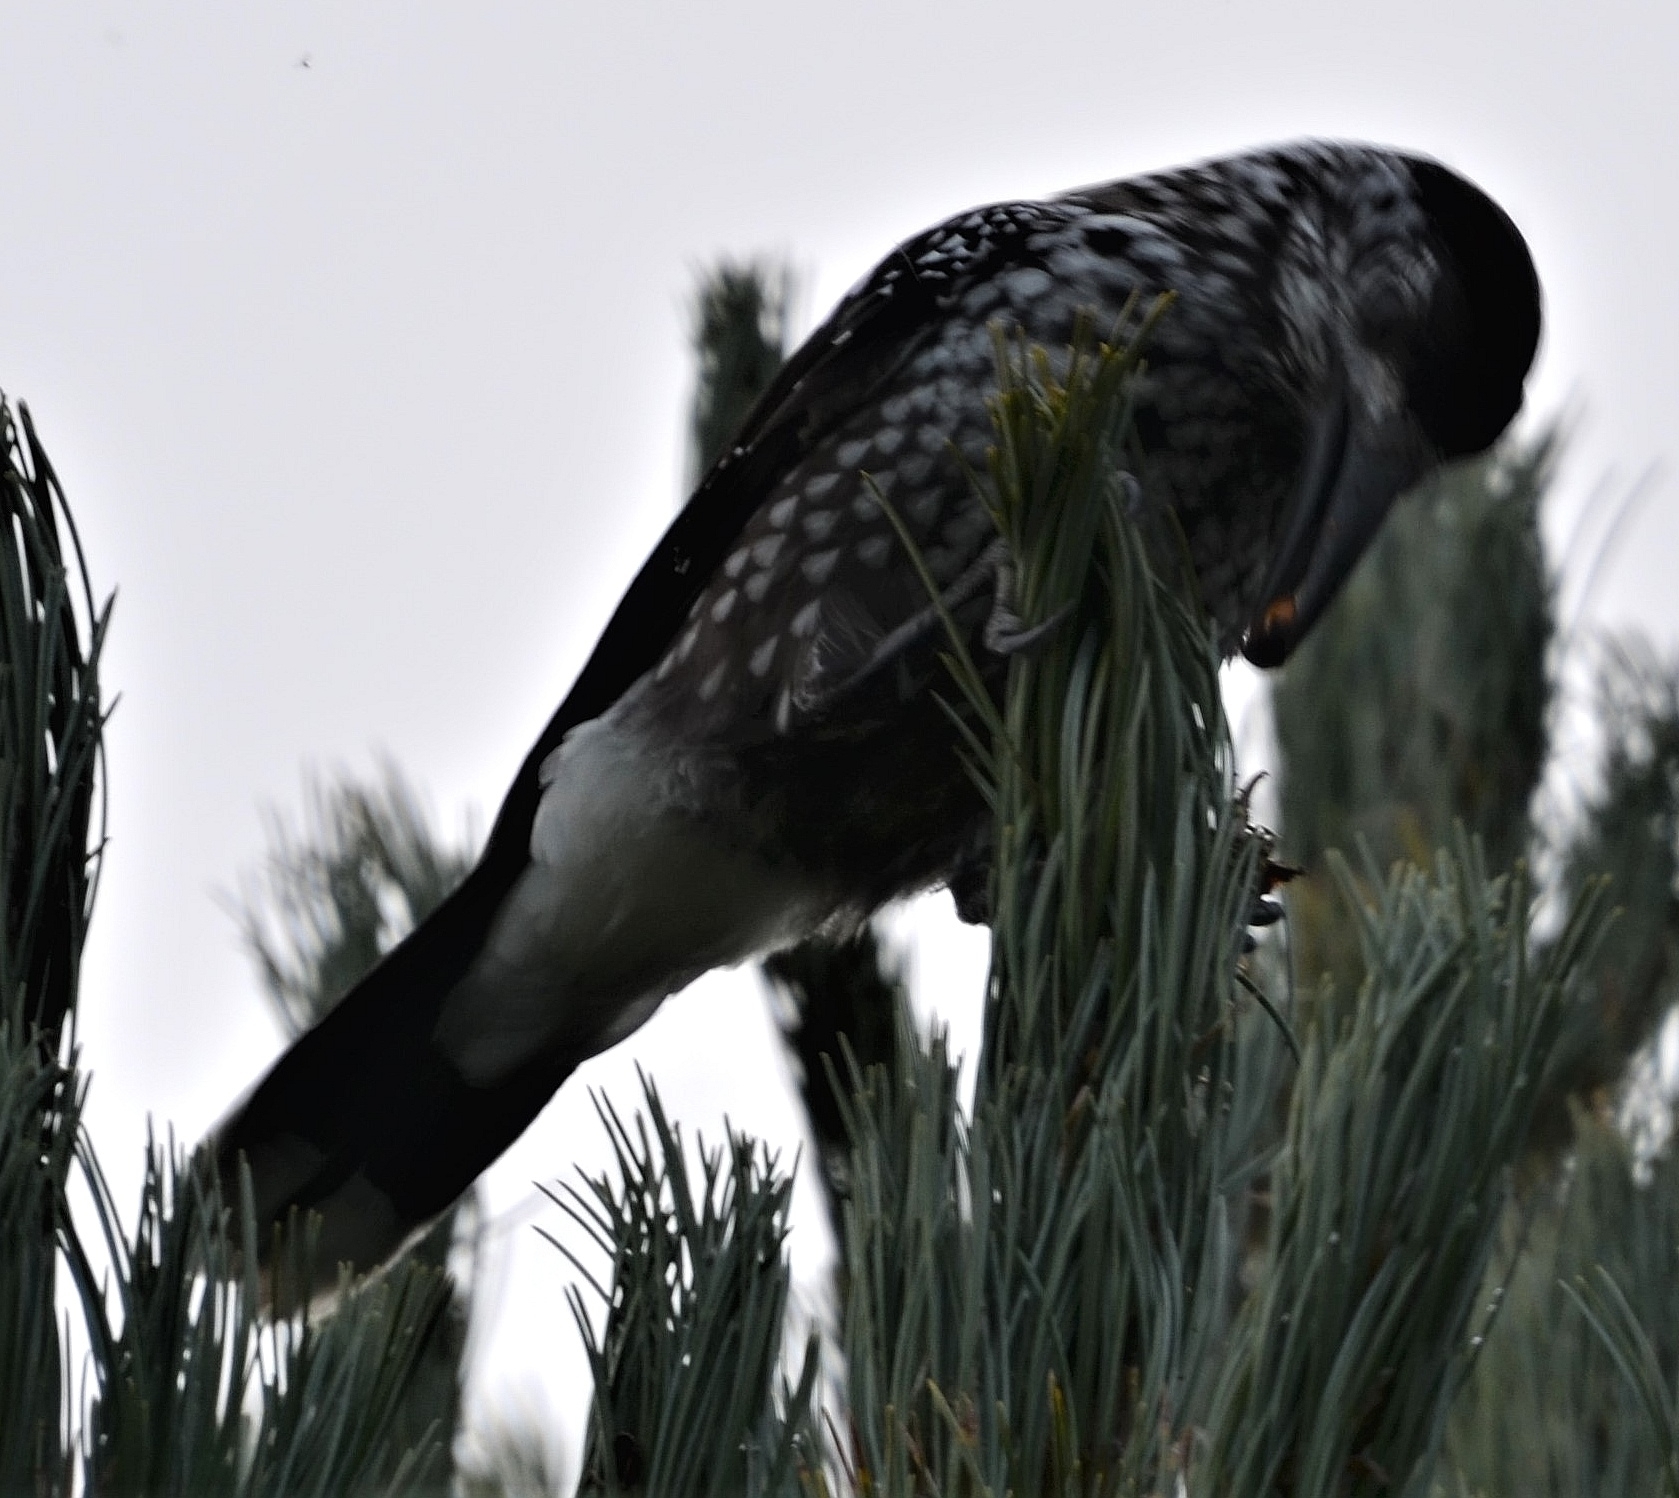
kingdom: Animalia
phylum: Chordata
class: Aves
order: Passeriformes
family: Corvidae
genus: Nucifraga
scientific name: Nucifraga caryocatactes
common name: Spotted nutcracker
